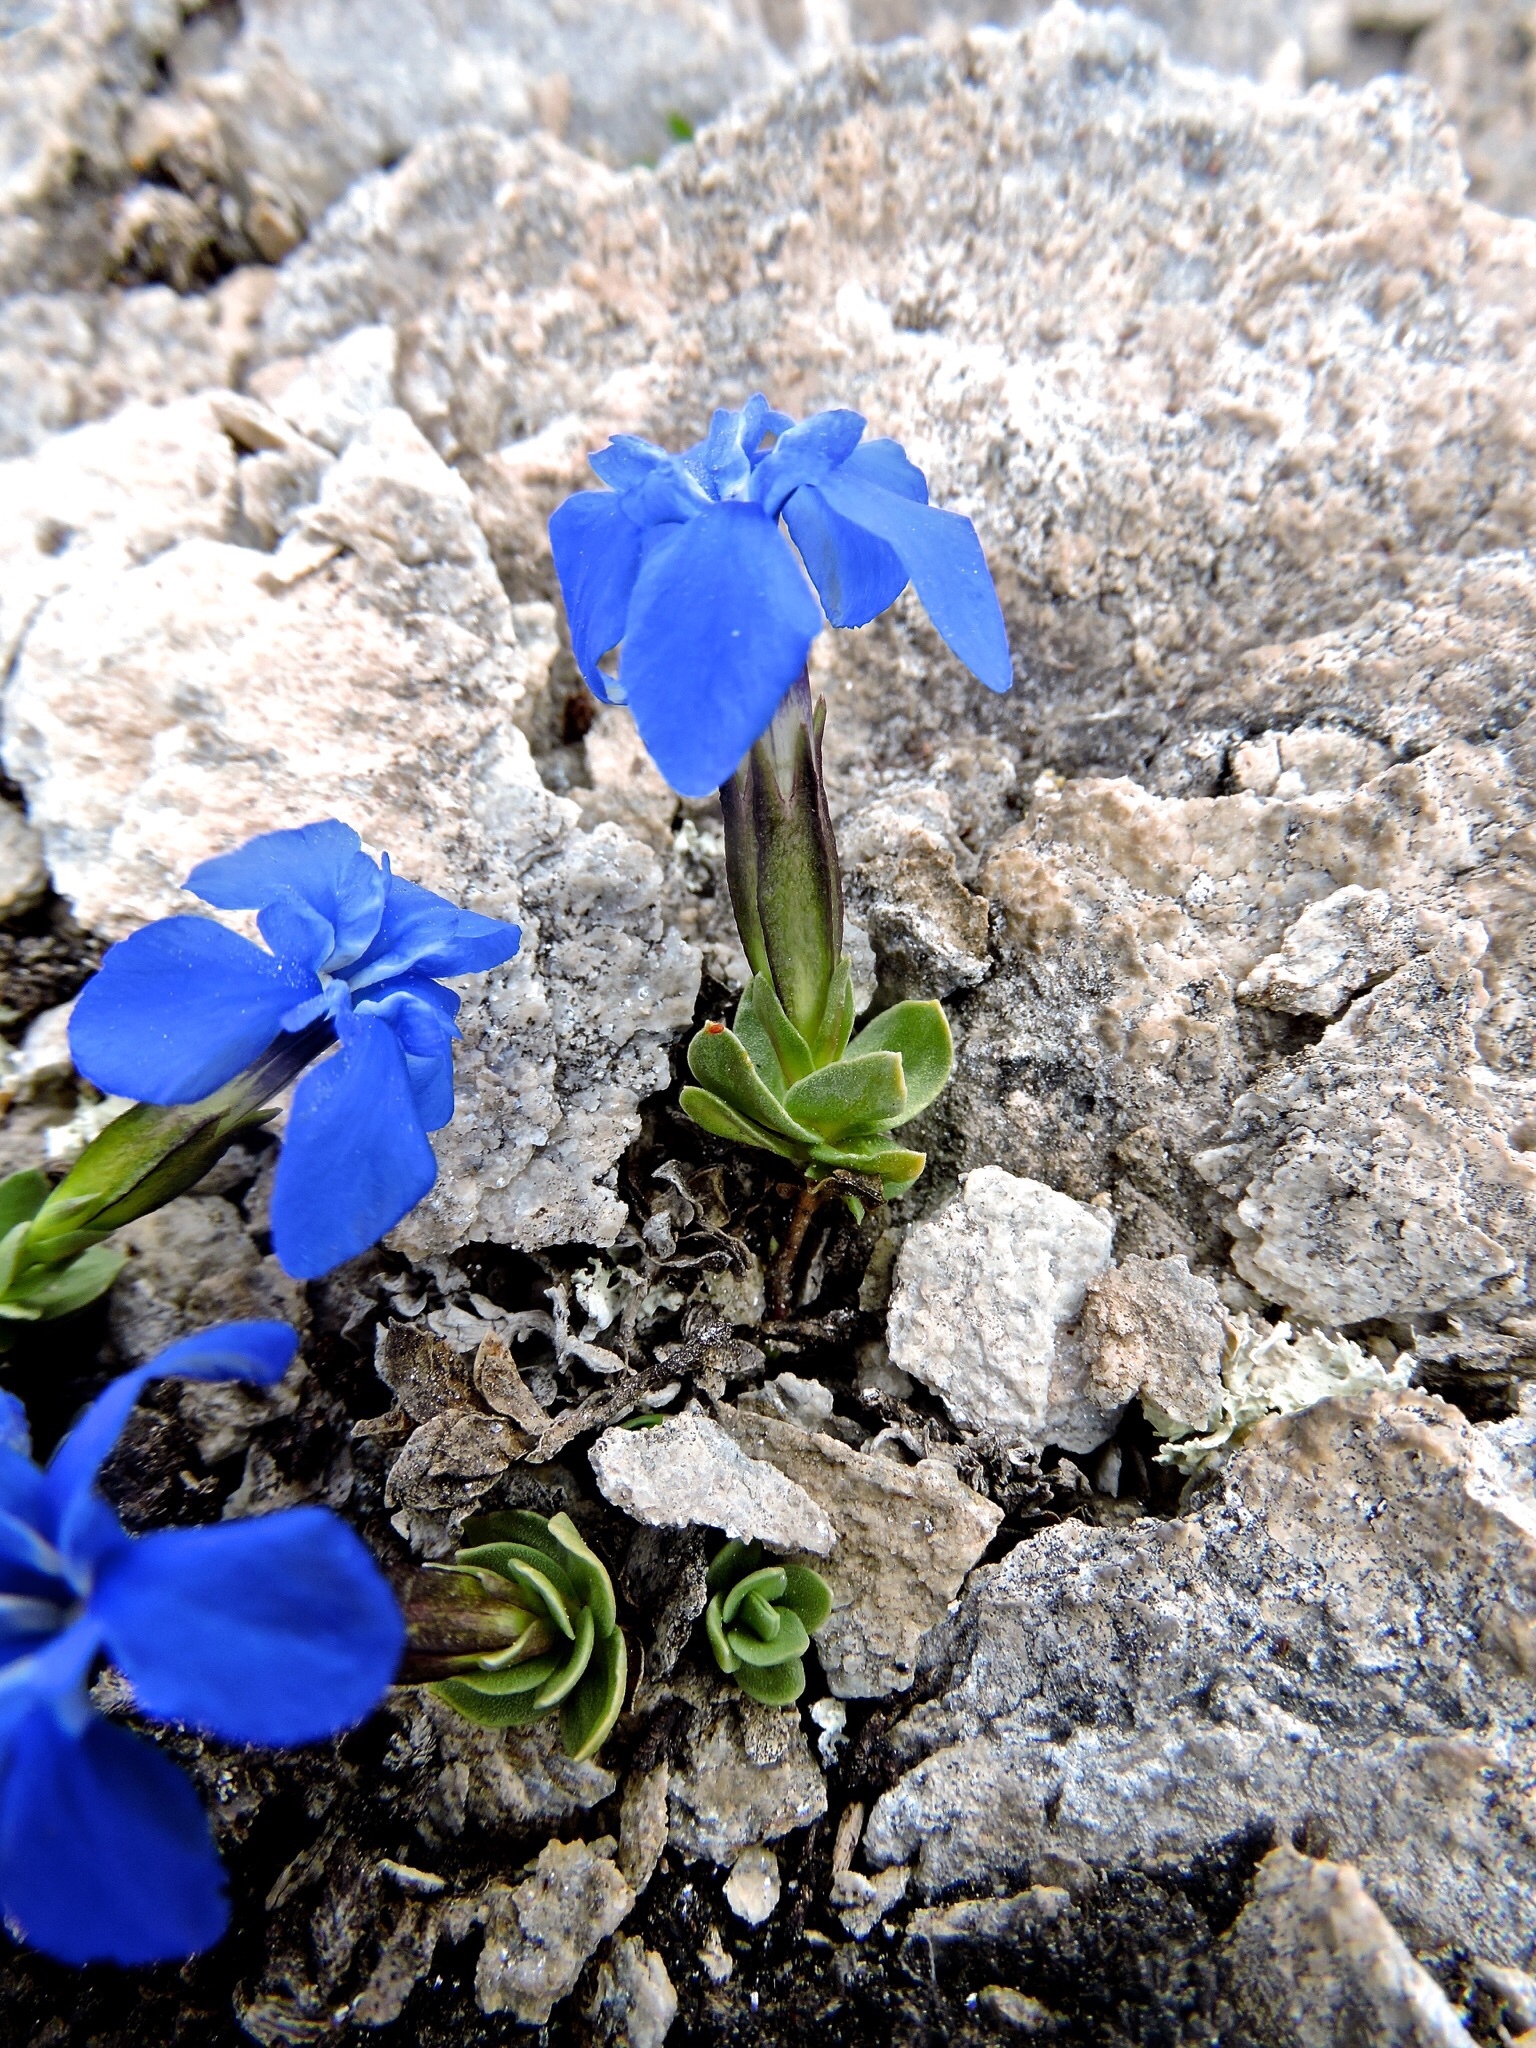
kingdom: Plantae
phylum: Tracheophyta
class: Magnoliopsida
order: Gentianales
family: Gentianaceae
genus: Gentiana
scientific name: Gentiana terglouensis
